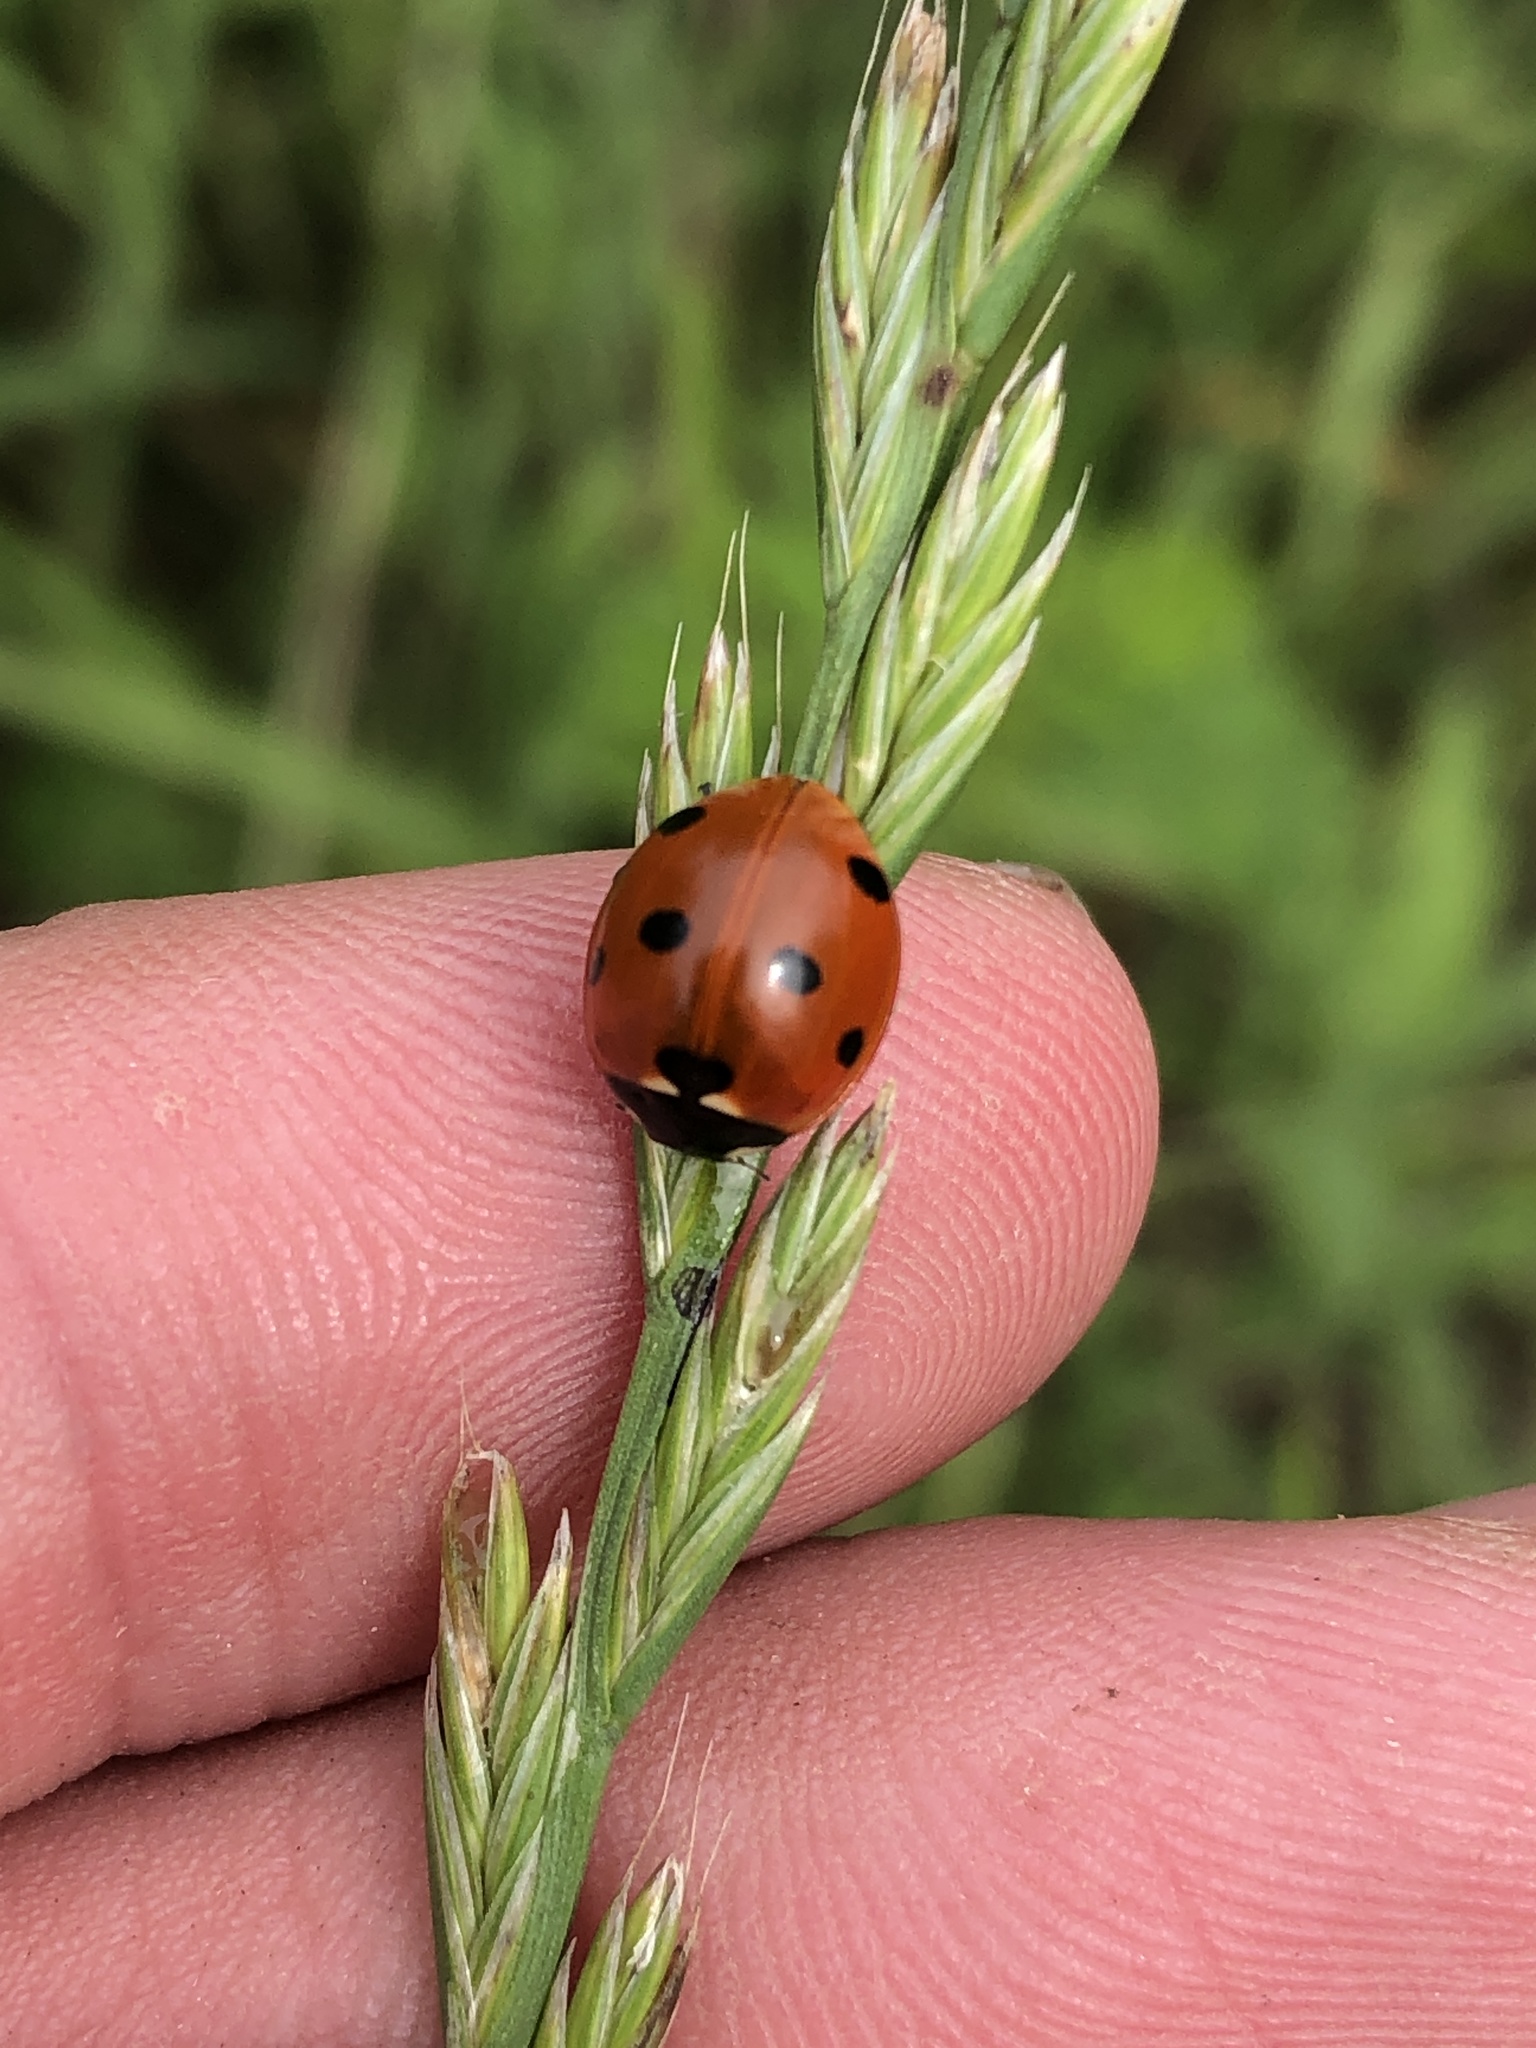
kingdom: Animalia
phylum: Arthropoda
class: Insecta
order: Coleoptera
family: Coccinellidae
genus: Coccinella
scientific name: Coccinella septempunctata
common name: Sevenspotted lady beetle
